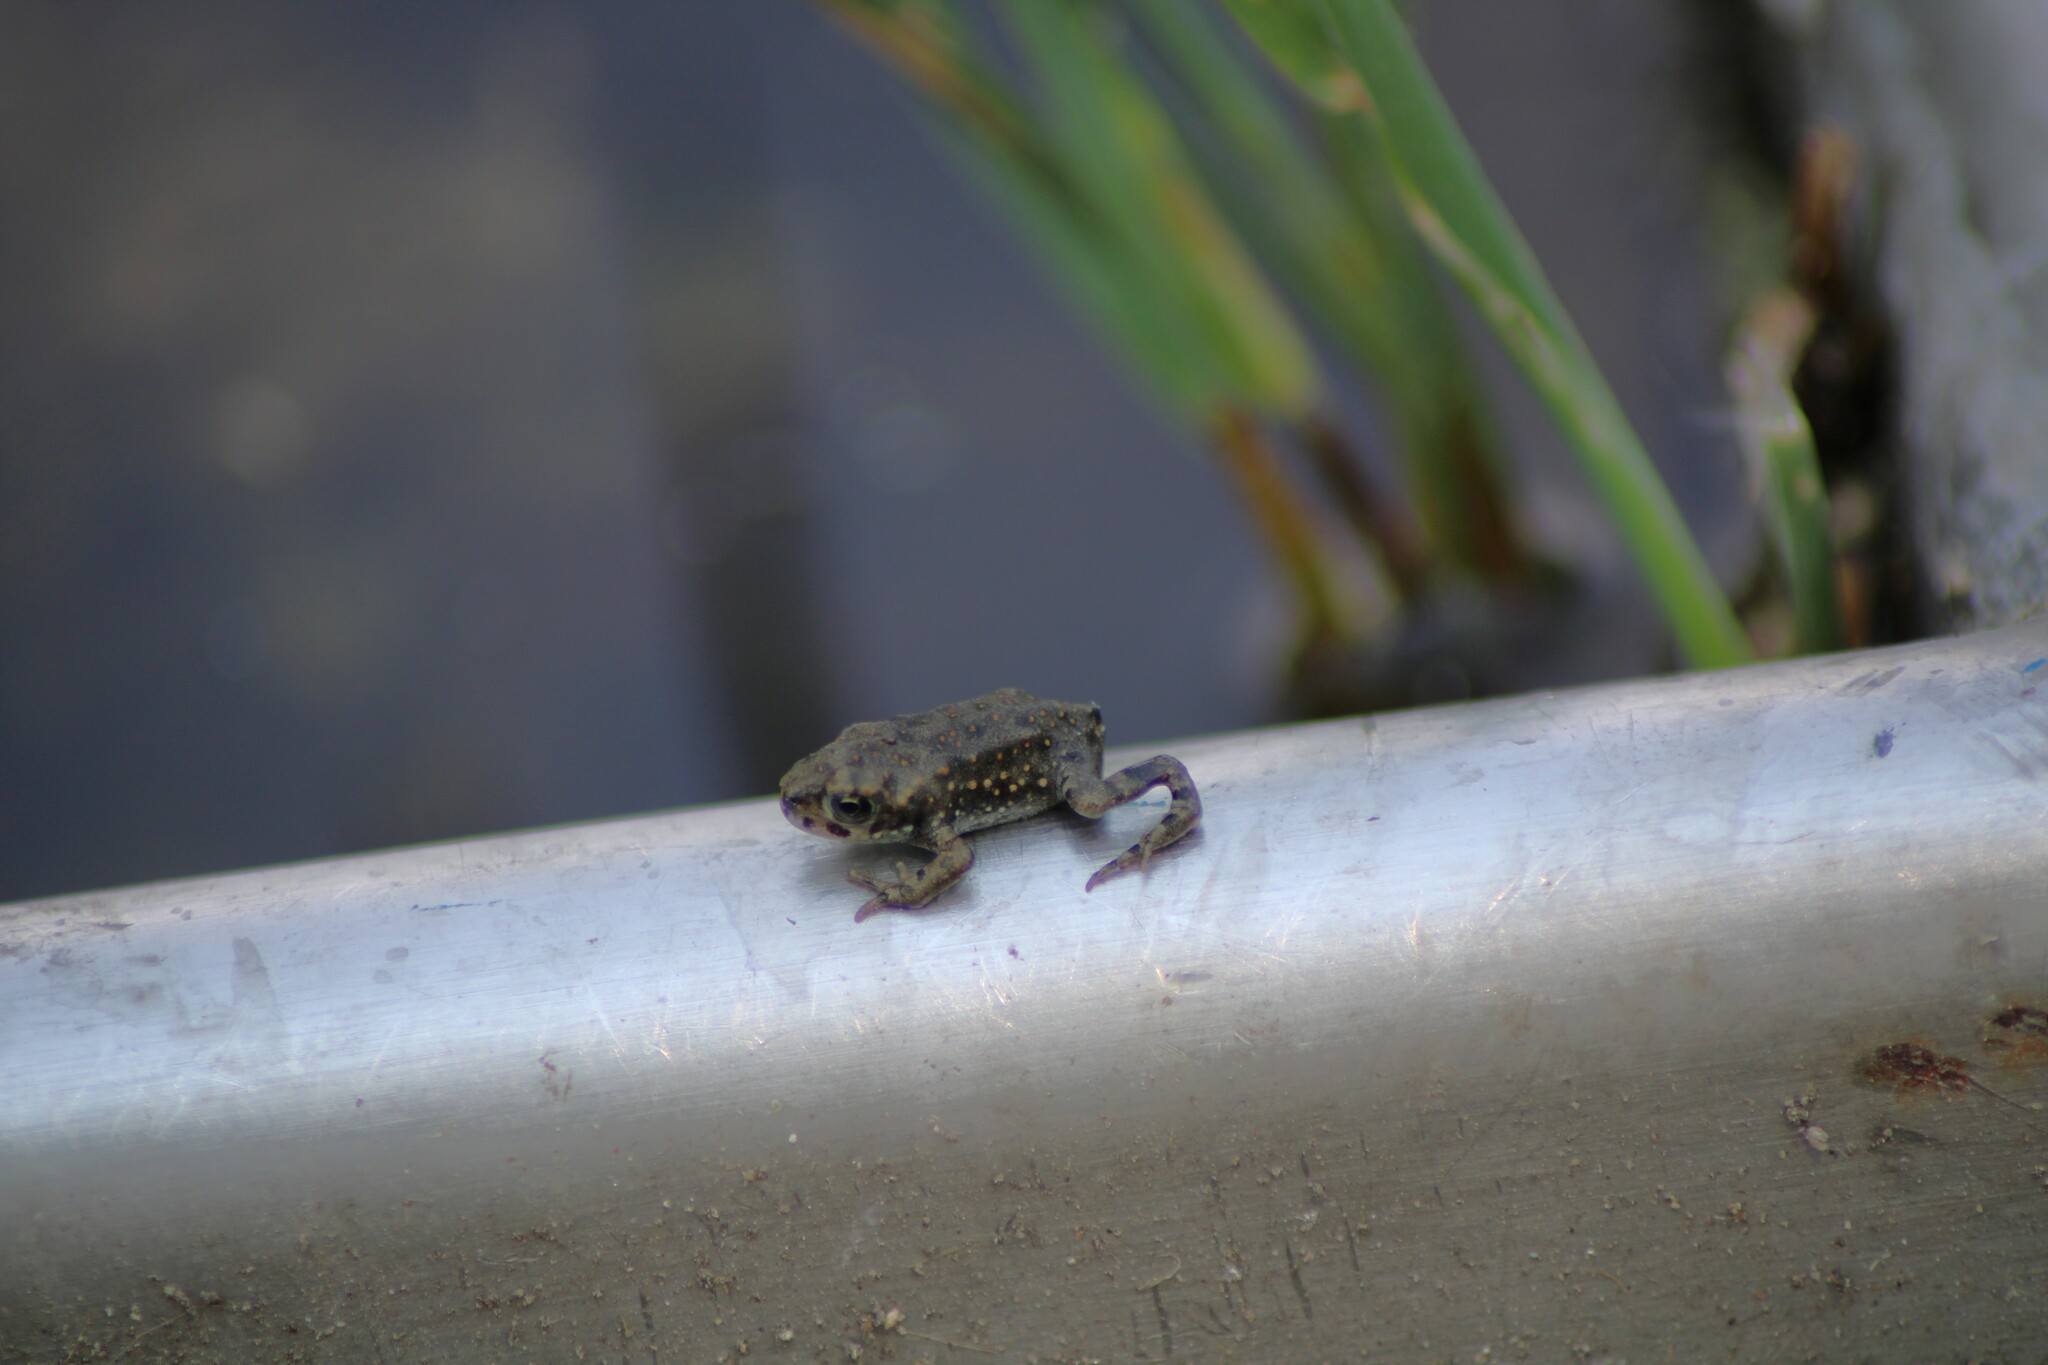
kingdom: Animalia
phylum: Chordata
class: Amphibia
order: Anura
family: Bufonidae
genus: Bufotes
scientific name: Bufotes viridis
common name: European green toad
